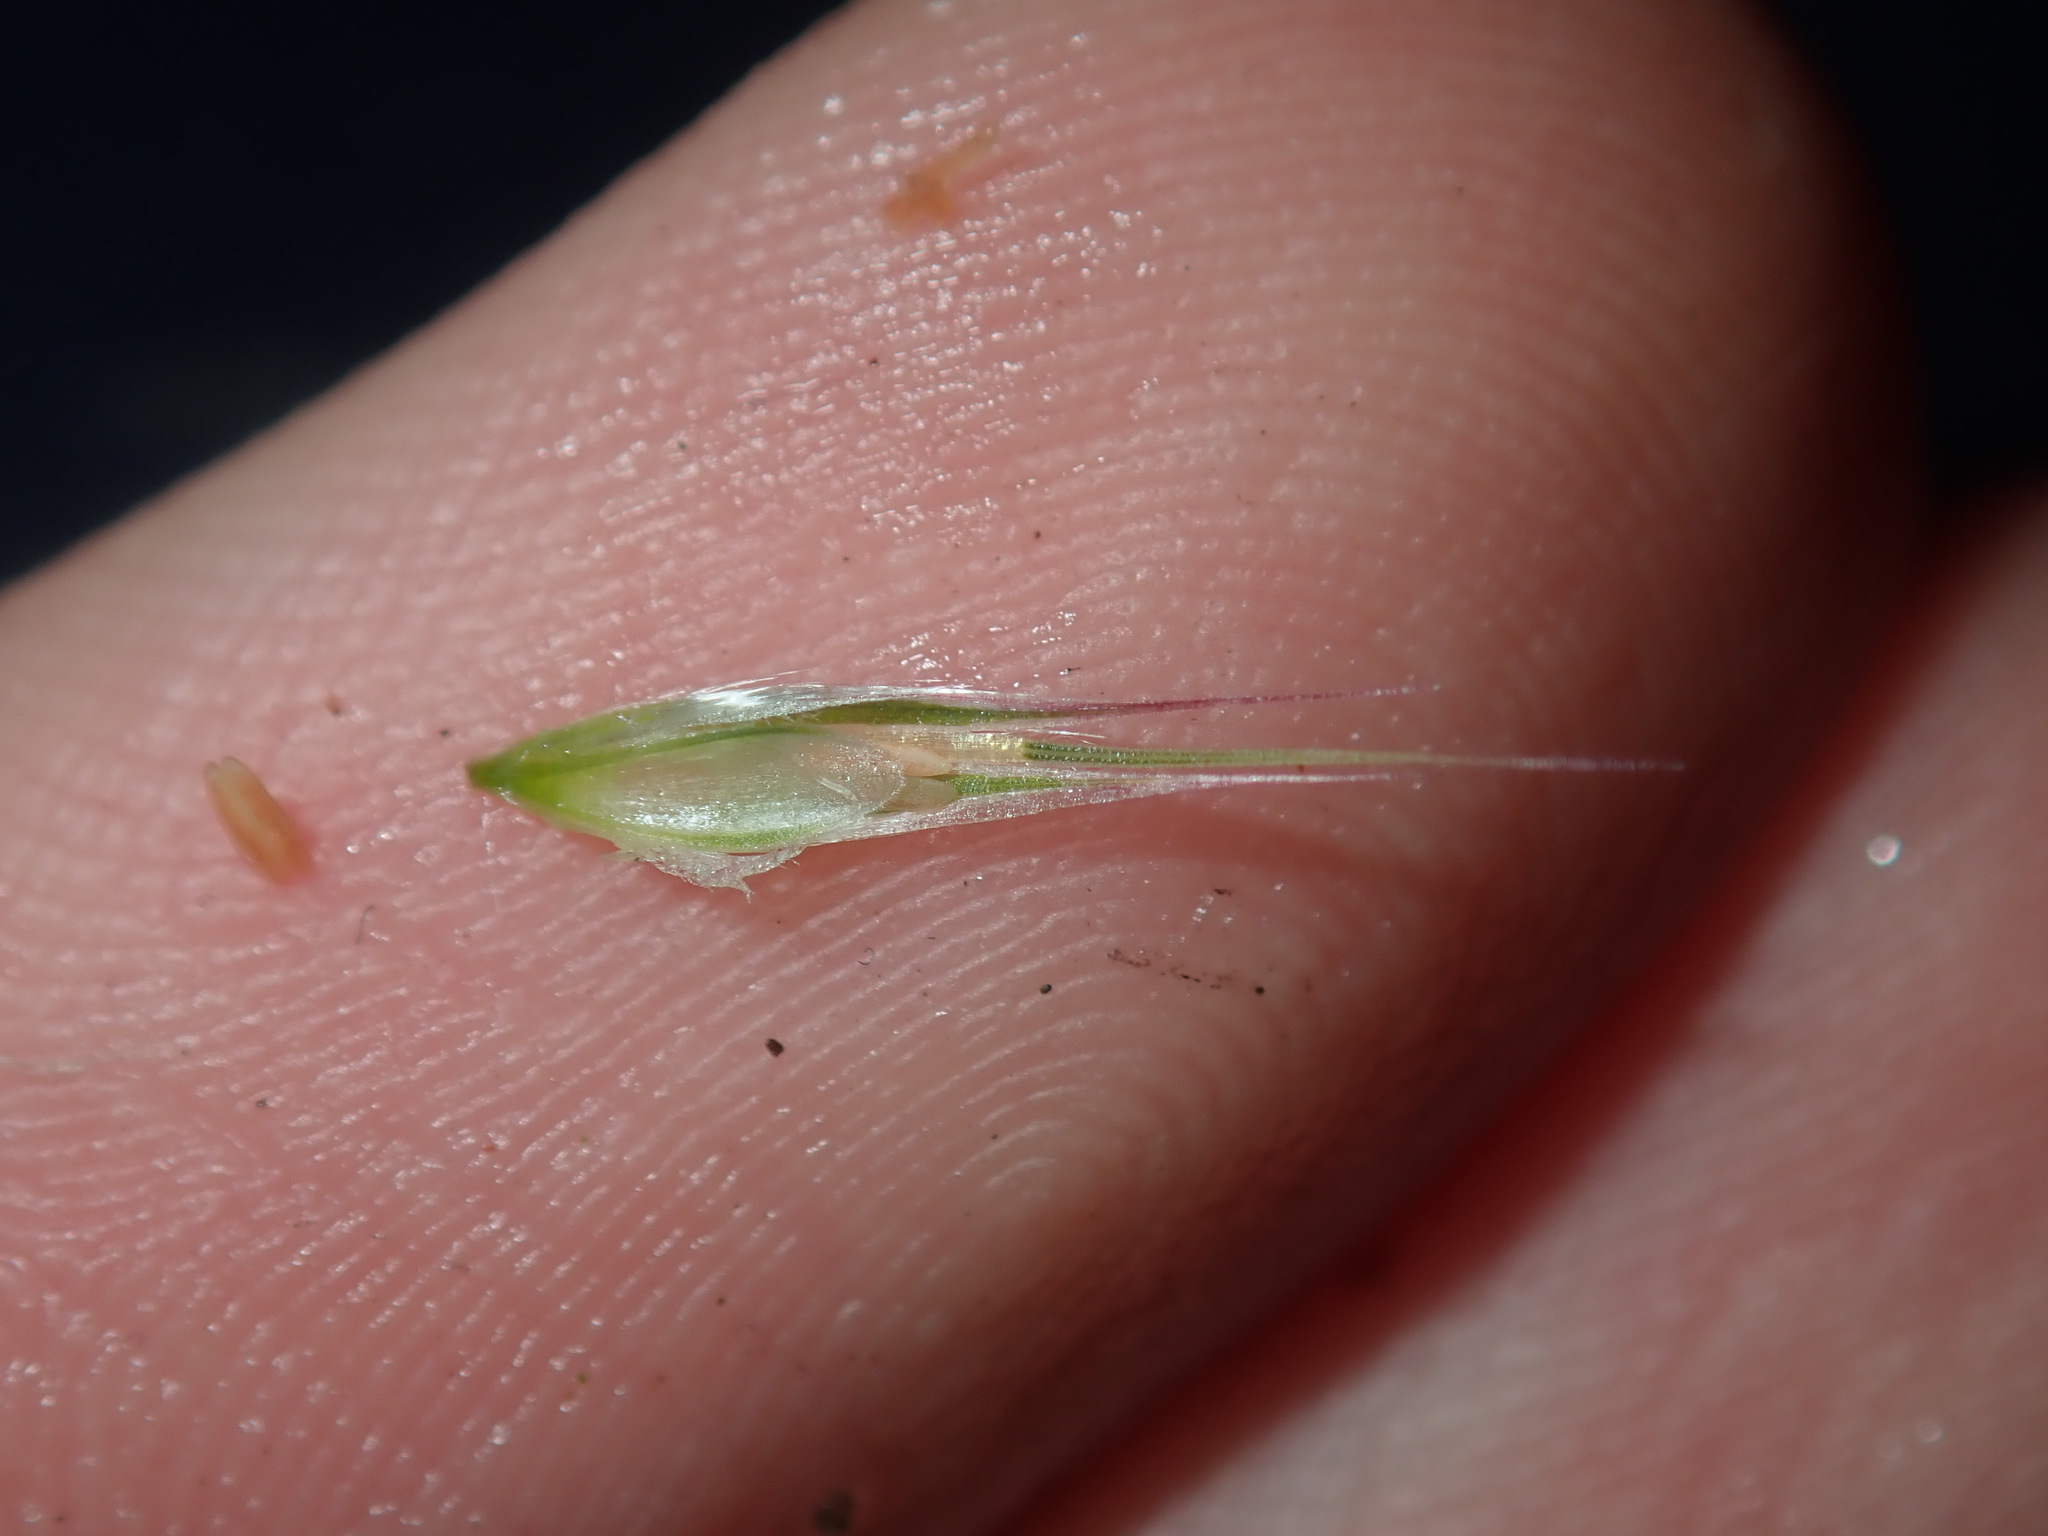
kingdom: Plantae
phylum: Tracheophyta
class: Liliopsida
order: Poales
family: Poaceae
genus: Rytidosperma
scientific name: Rytidosperma
